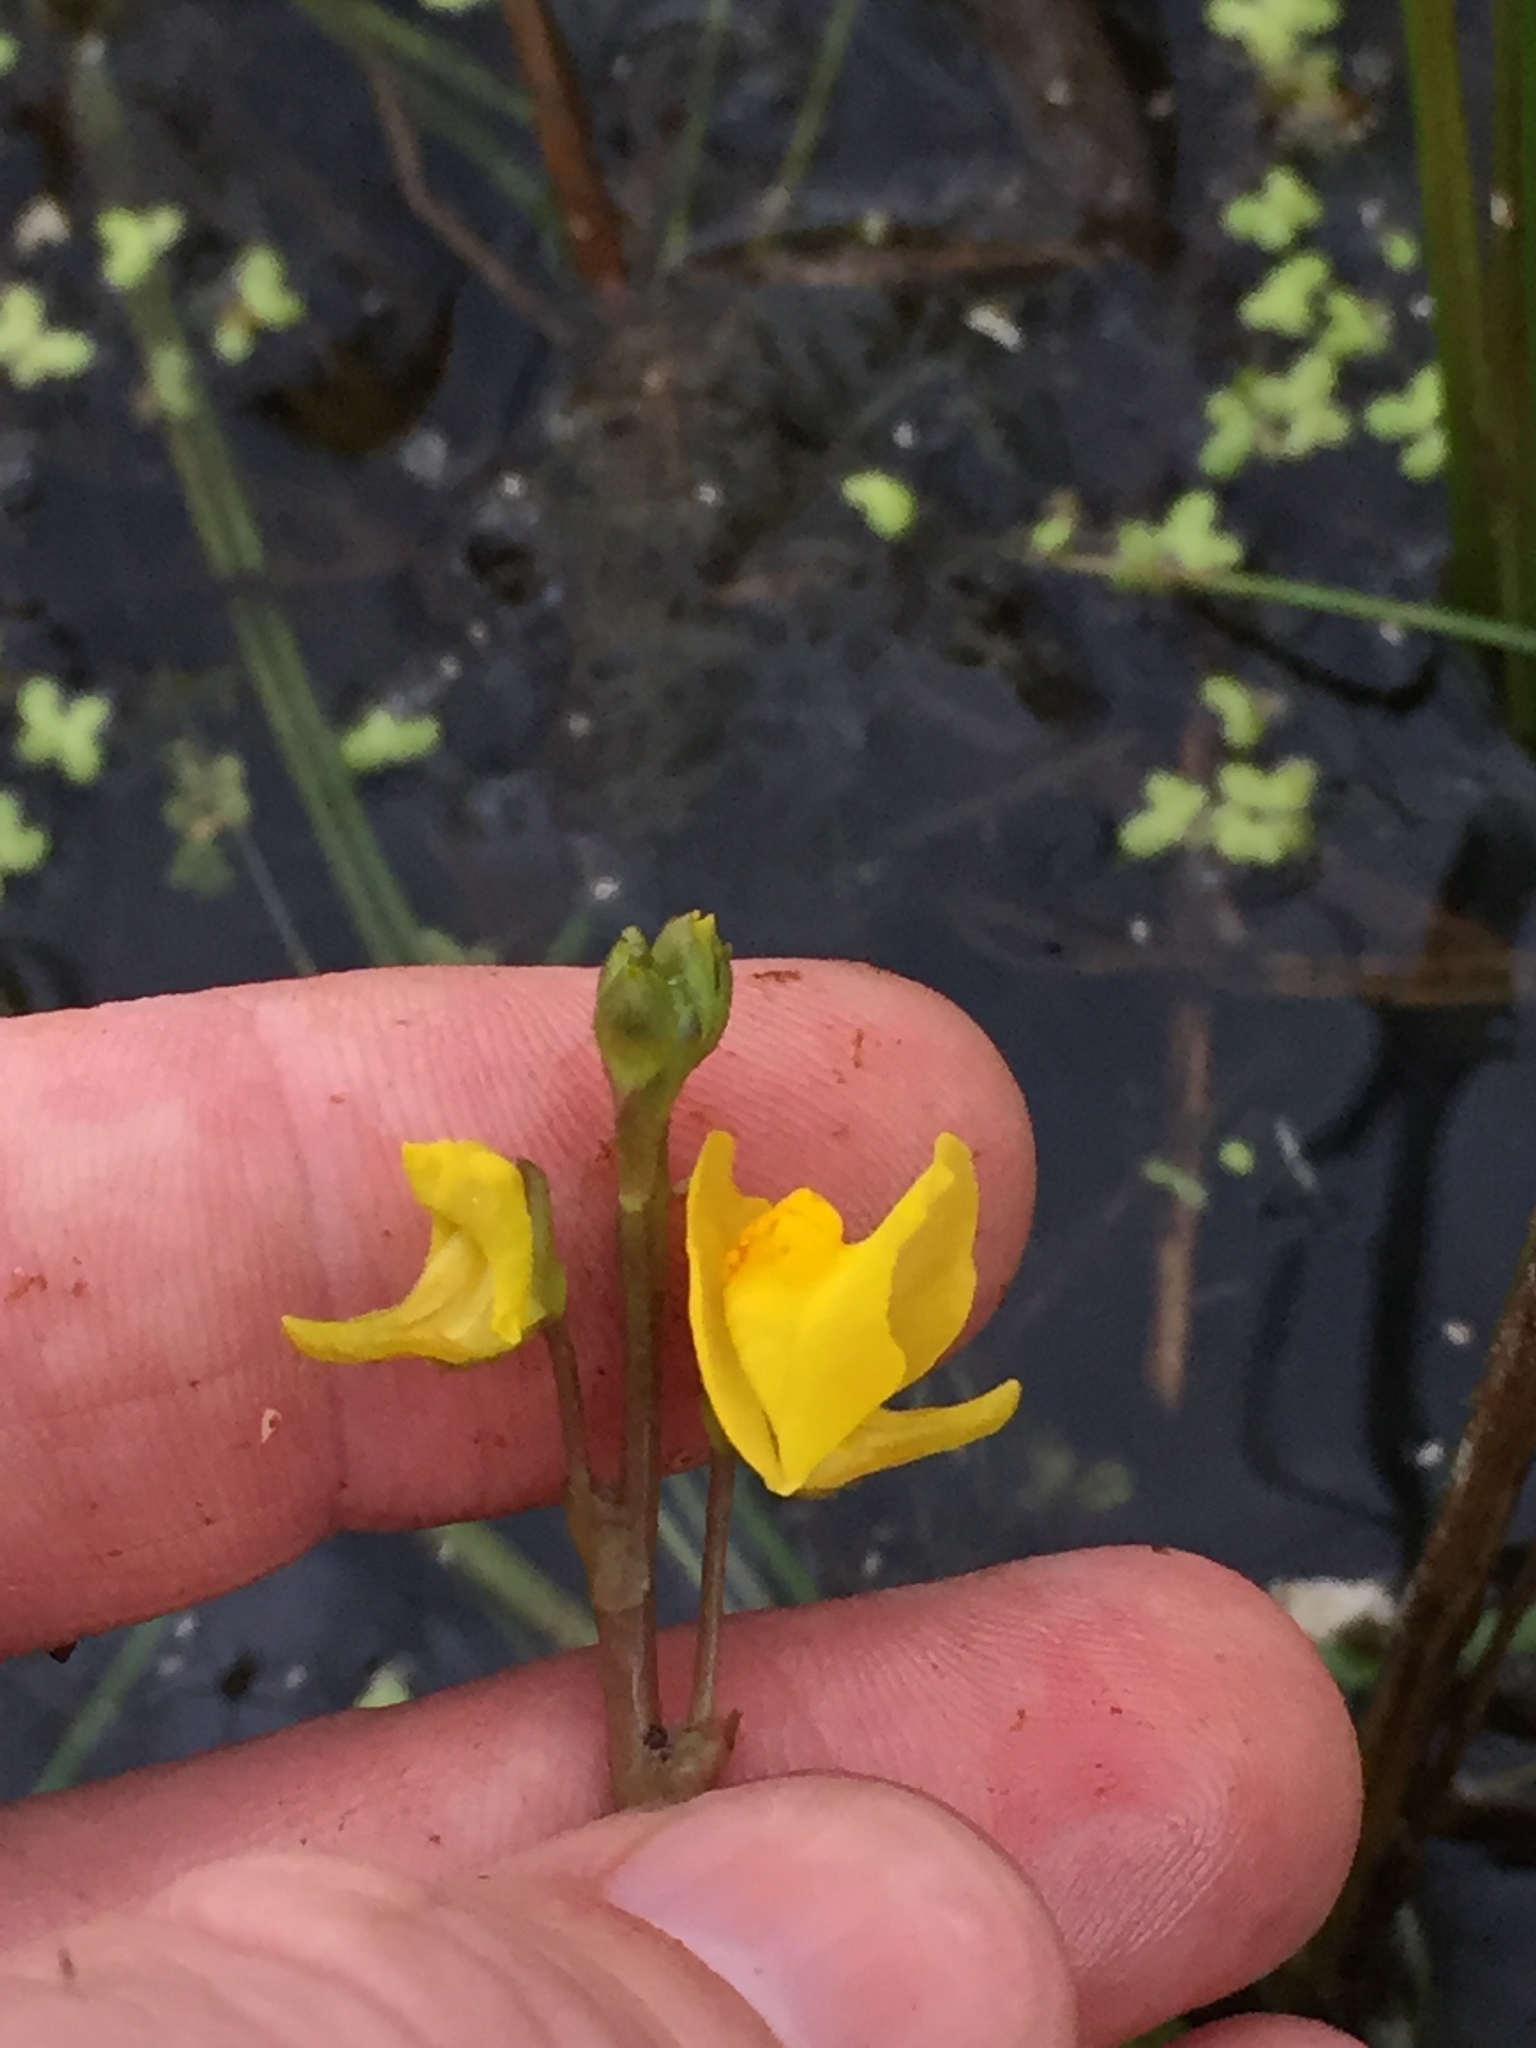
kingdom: Plantae
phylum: Tracheophyta
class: Magnoliopsida
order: Lamiales
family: Lentibulariaceae
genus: Utricularia
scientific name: Utricularia macrorhiza
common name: Common bladderwort
